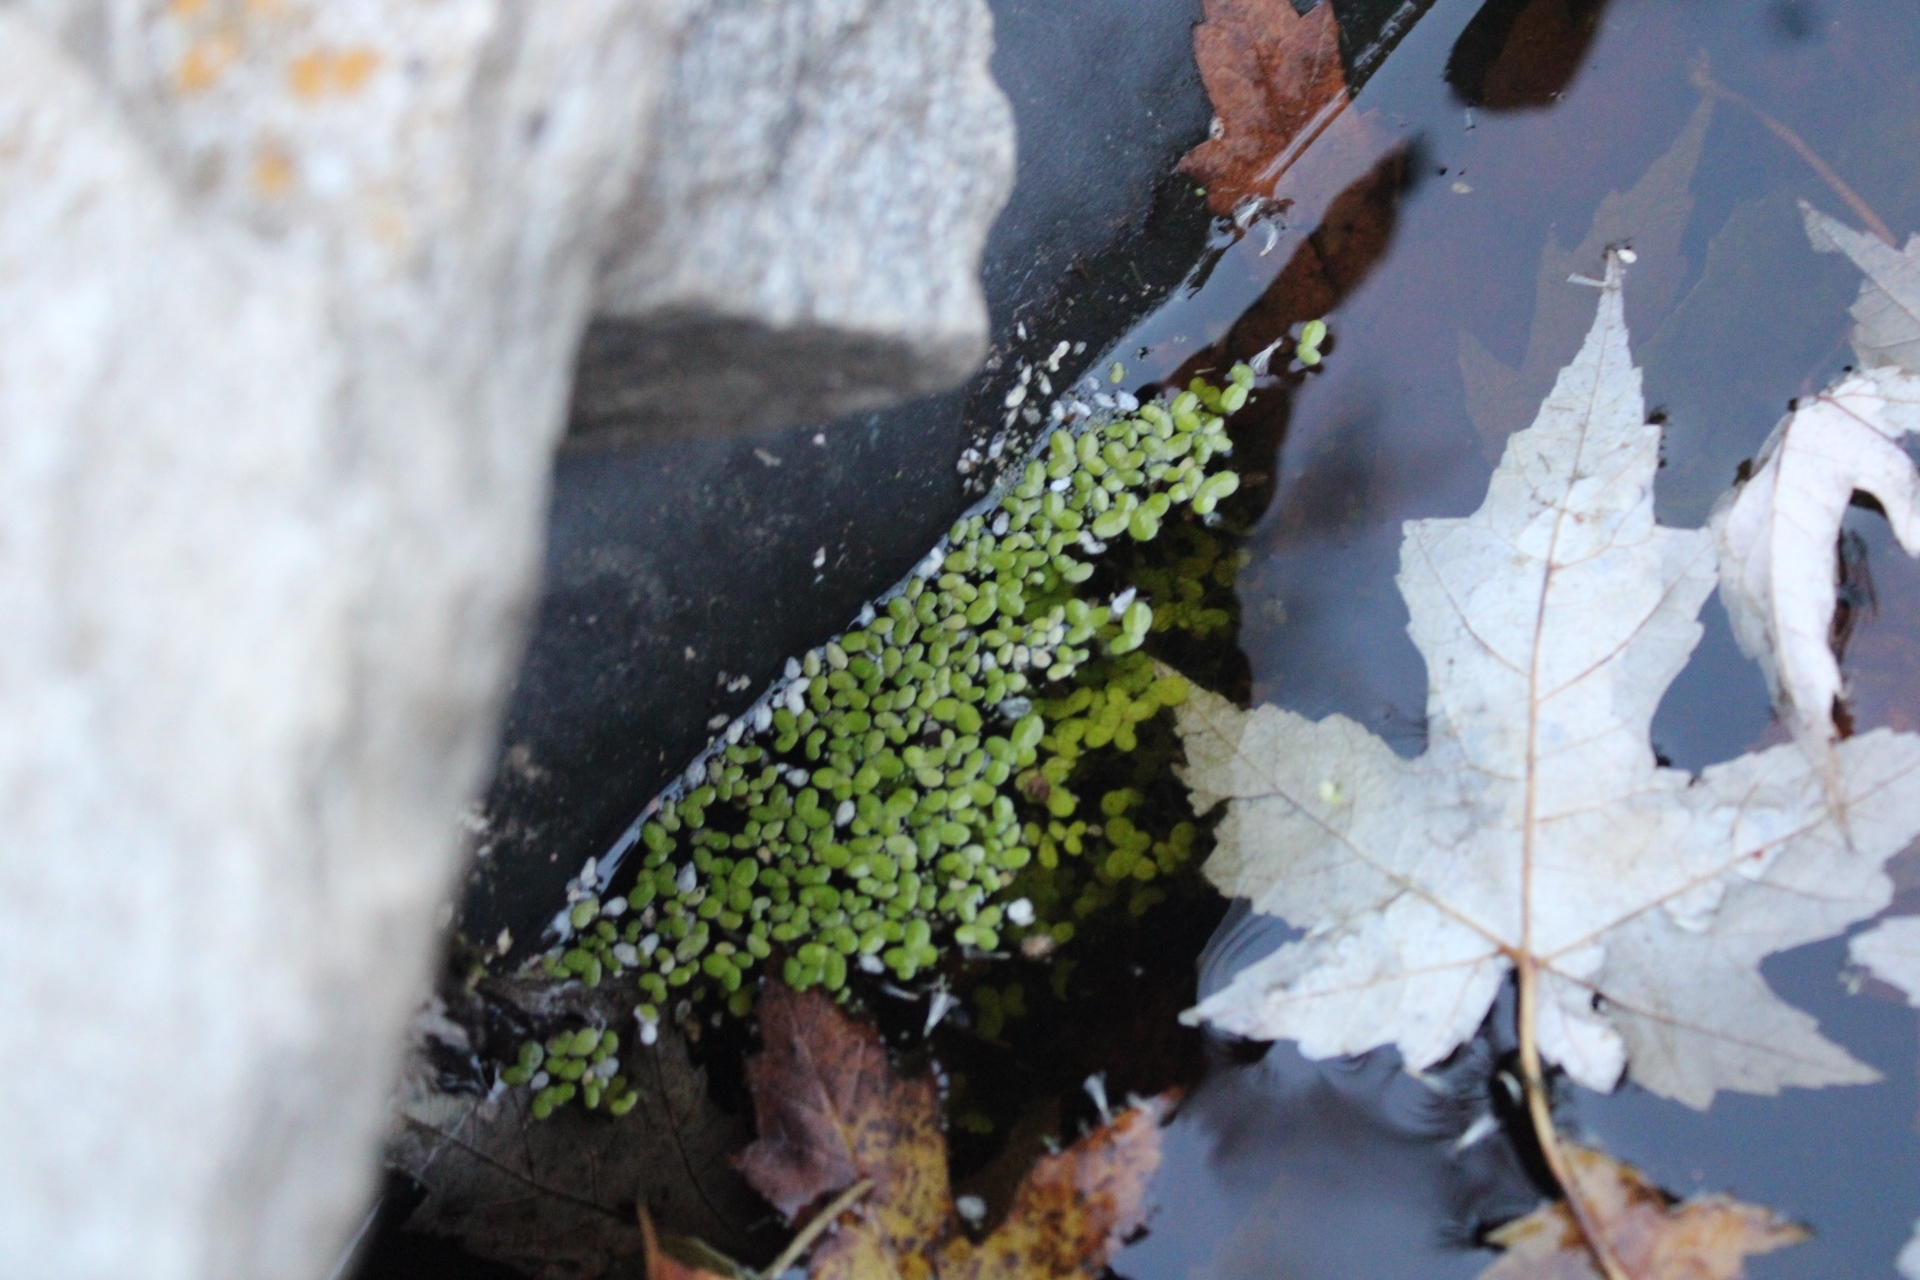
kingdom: Plantae
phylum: Tracheophyta
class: Liliopsida
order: Alismatales
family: Araceae
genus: Lemna
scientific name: Lemna minor
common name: Common duckweed
